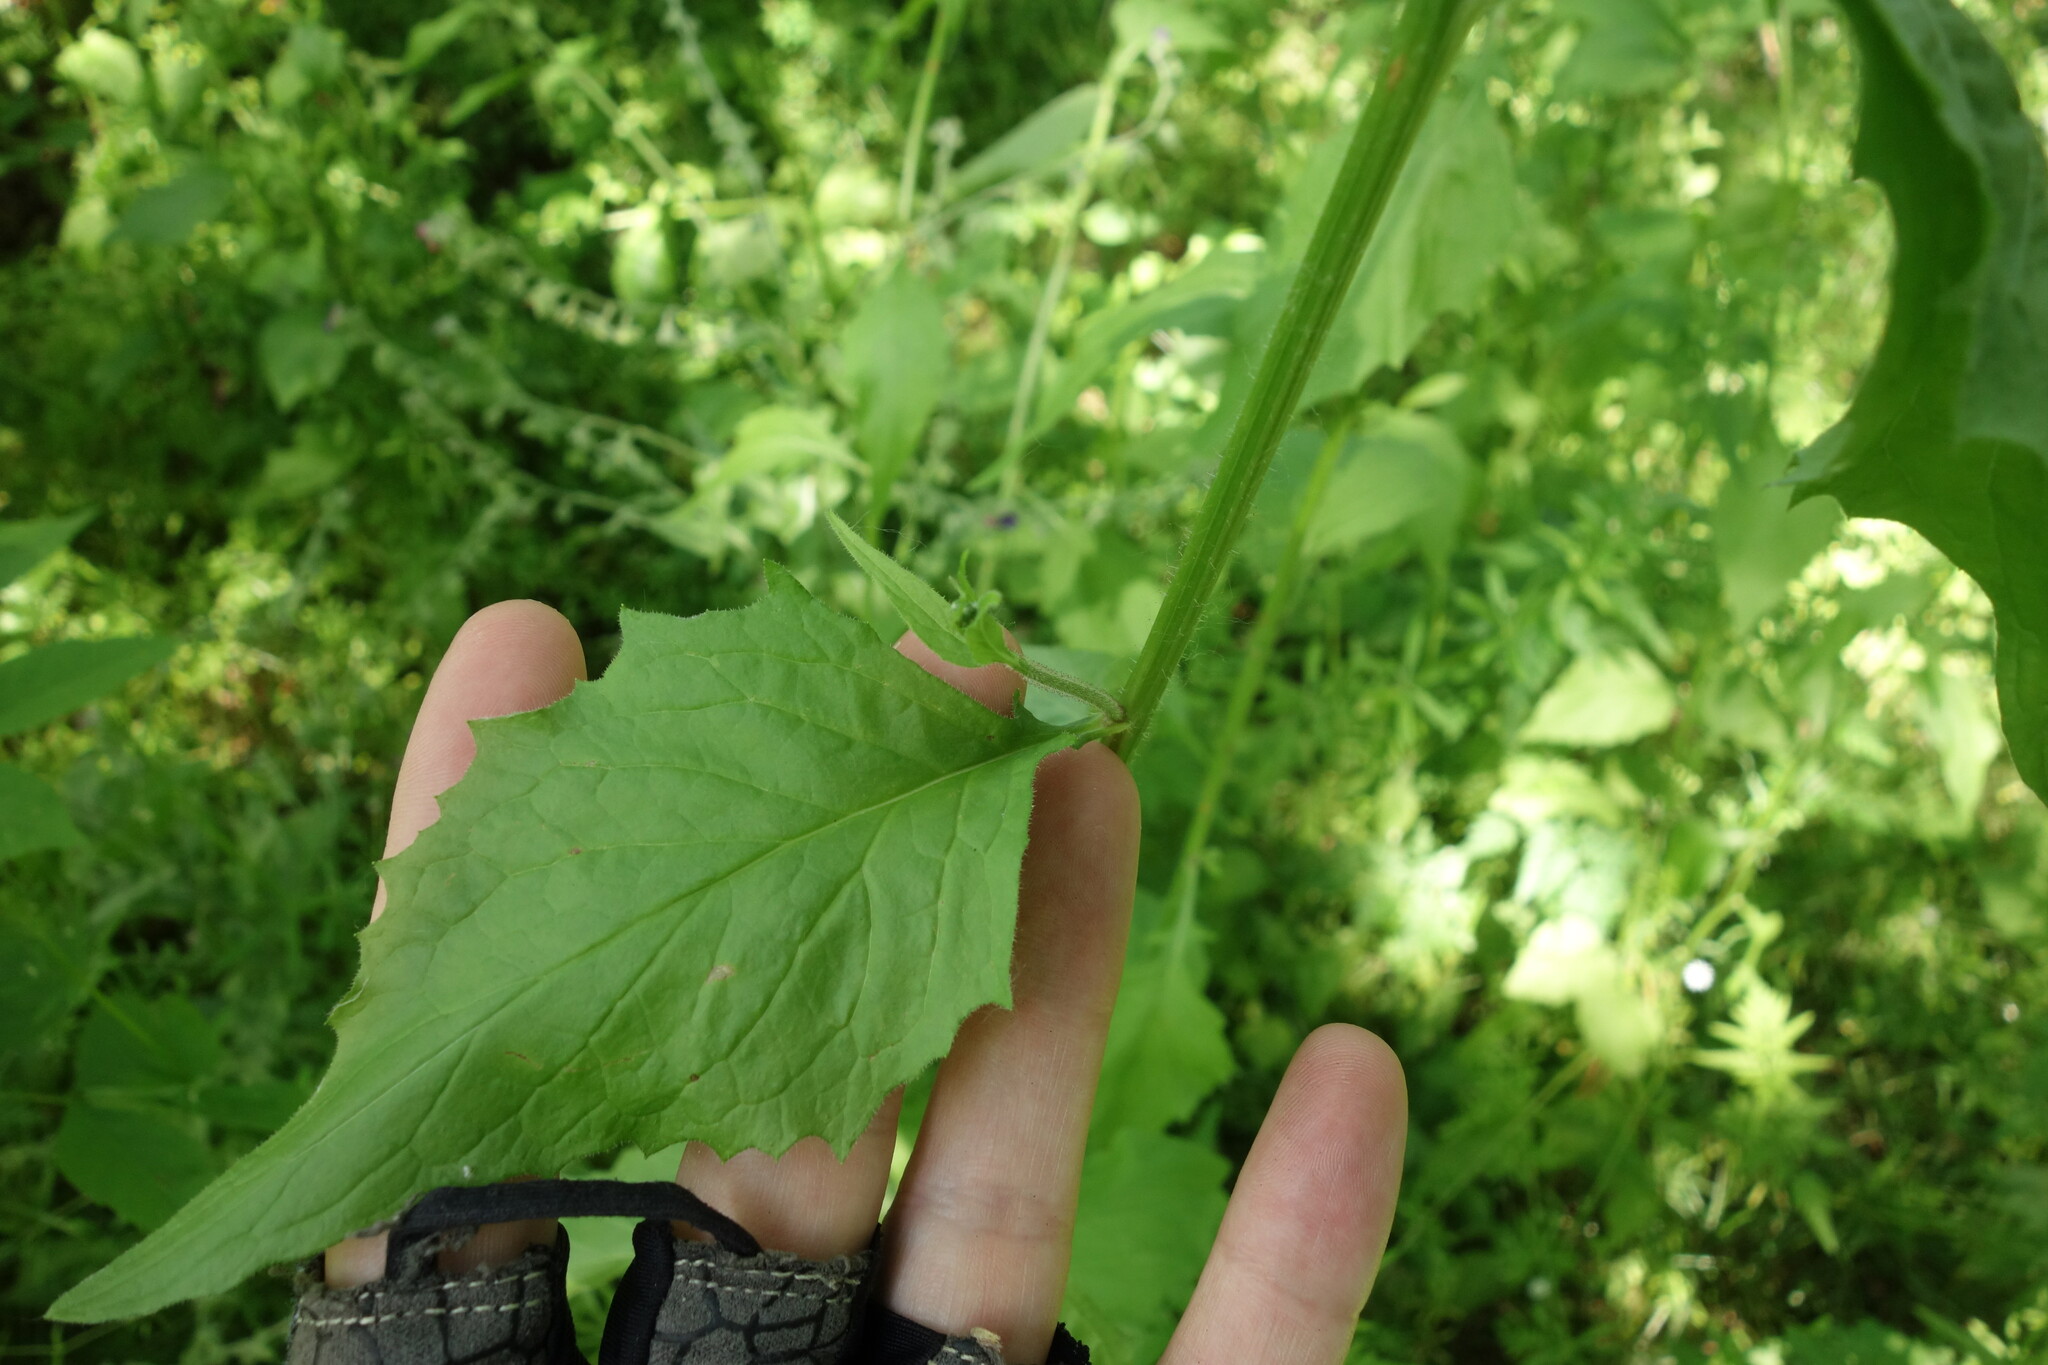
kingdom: Plantae
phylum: Tracheophyta
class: Magnoliopsida
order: Asterales
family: Asteraceae
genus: Lapsana
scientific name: Lapsana communis
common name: Nipplewort
